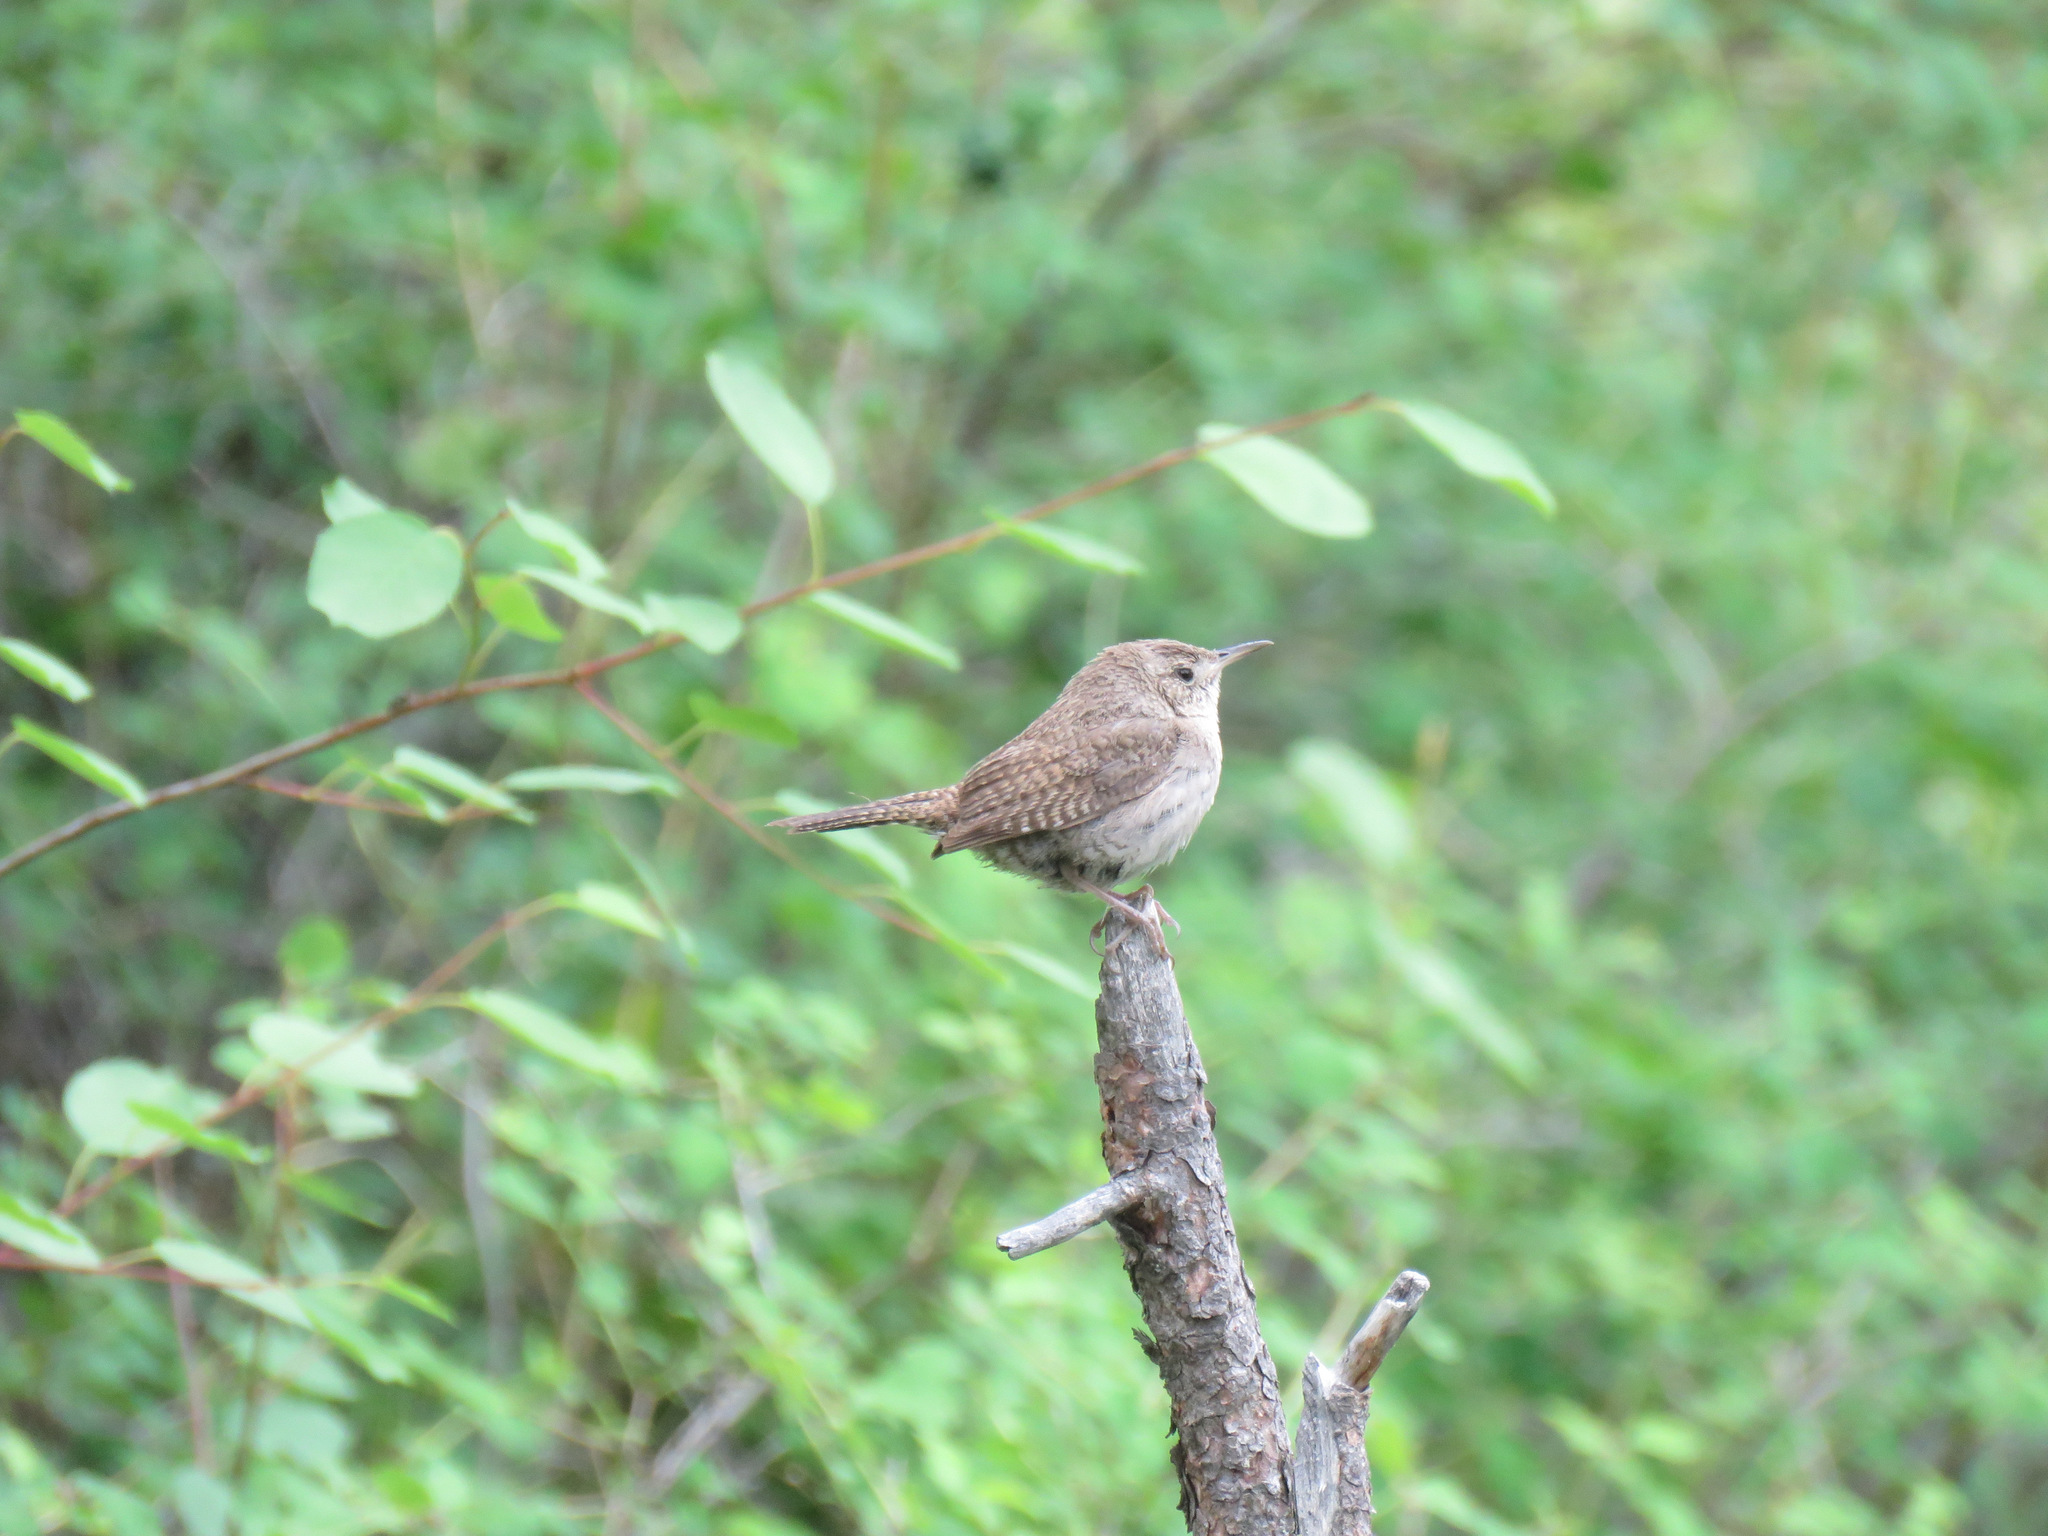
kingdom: Animalia
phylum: Chordata
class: Aves
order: Passeriformes
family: Troglodytidae
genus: Troglodytes
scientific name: Troglodytes aedon
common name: House wren
